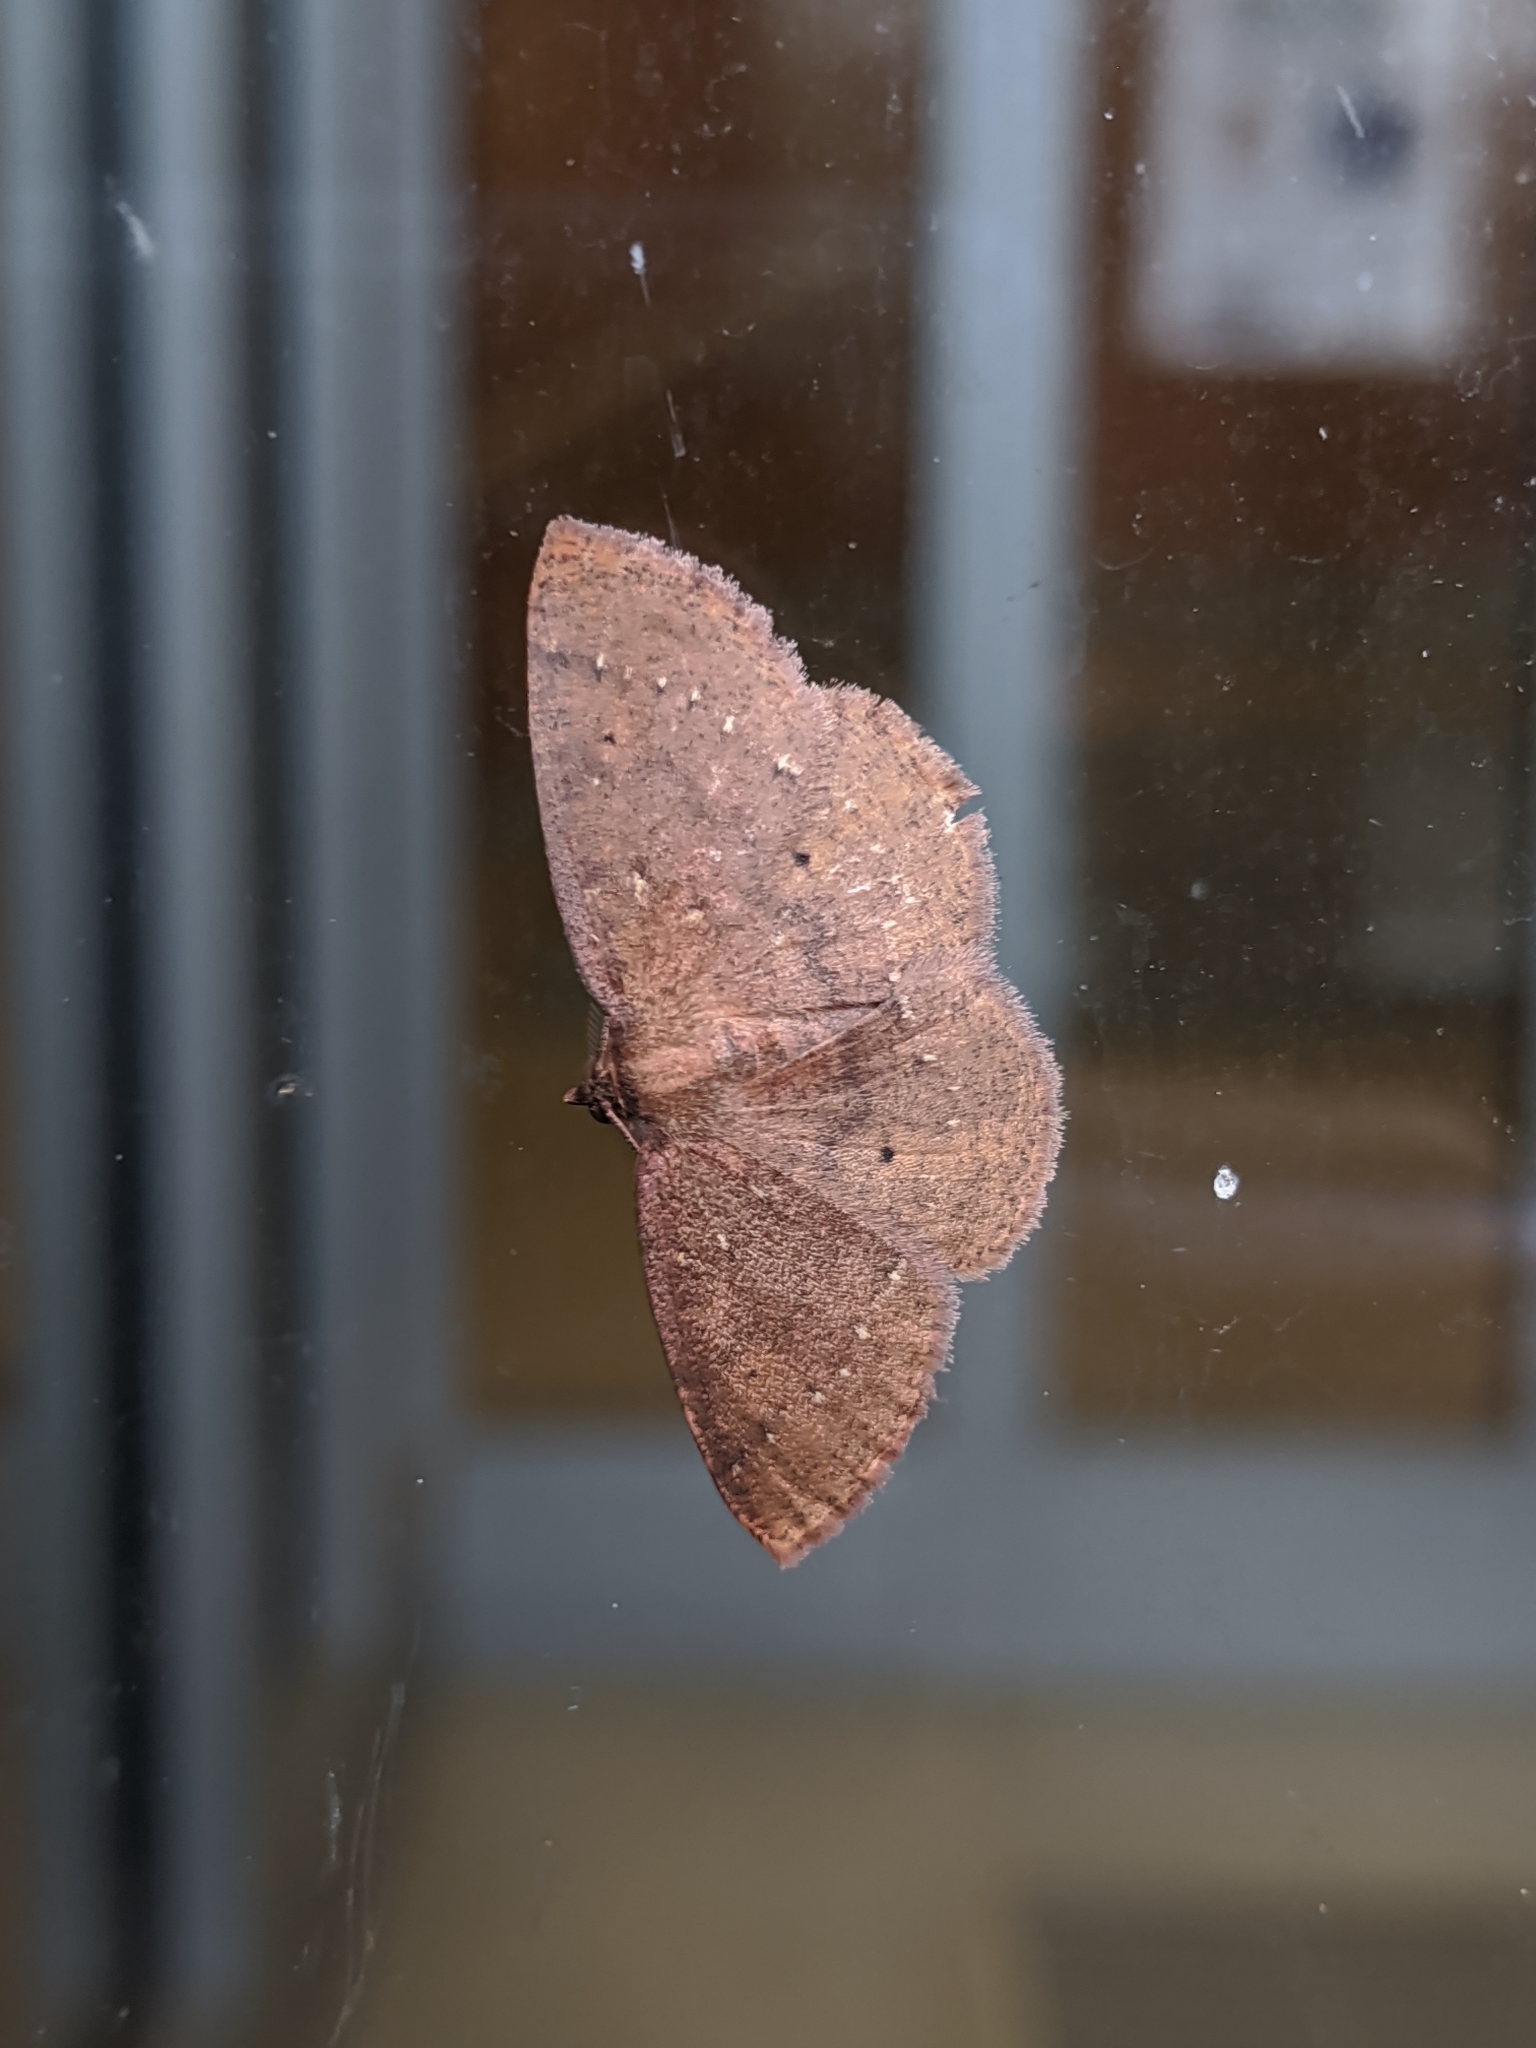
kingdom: Animalia
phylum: Arthropoda
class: Insecta
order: Lepidoptera
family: Geometridae
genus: Ilexia
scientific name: Ilexia intractata
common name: Black-dotted ruddy moth
